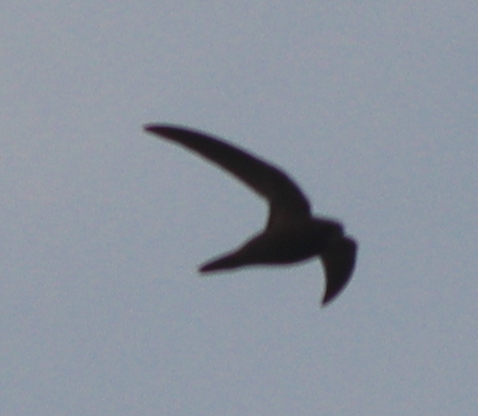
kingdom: Animalia
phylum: Chordata
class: Aves
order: Apodiformes
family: Apodidae
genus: Apus
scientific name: Apus apus
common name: Common swift
